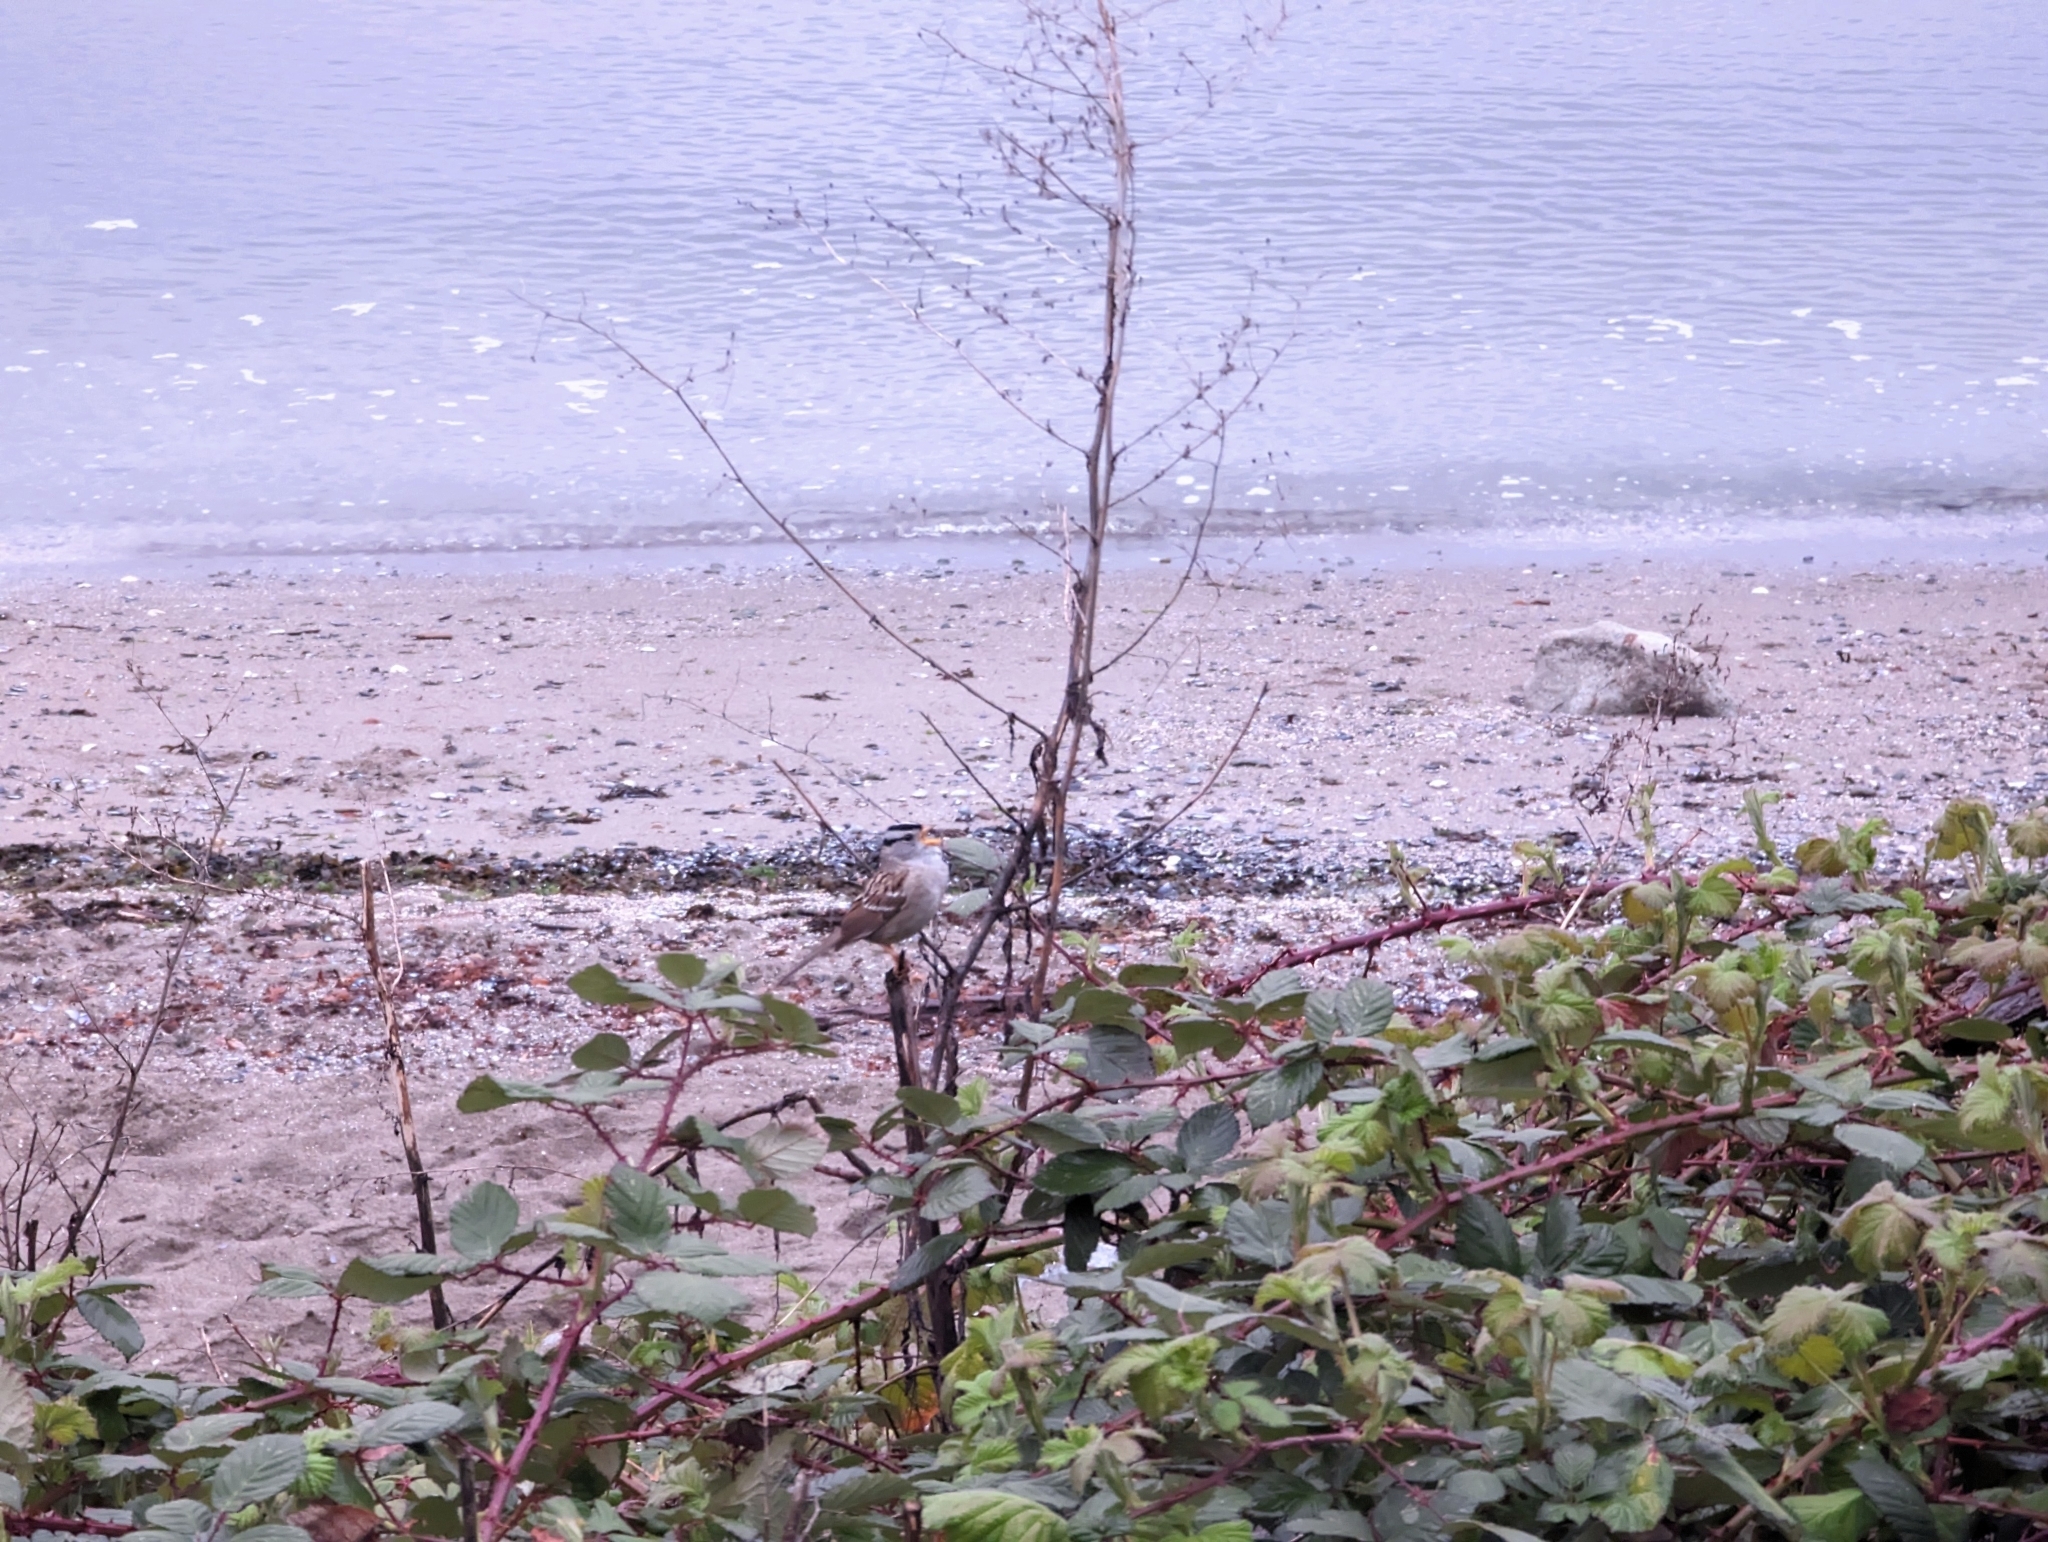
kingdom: Animalia
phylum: Chordata
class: Aves
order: Passeriformes
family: Passerellidae
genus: Zonotrichia
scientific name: Zonotrichia leucophrys
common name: White-crowned sparrow
